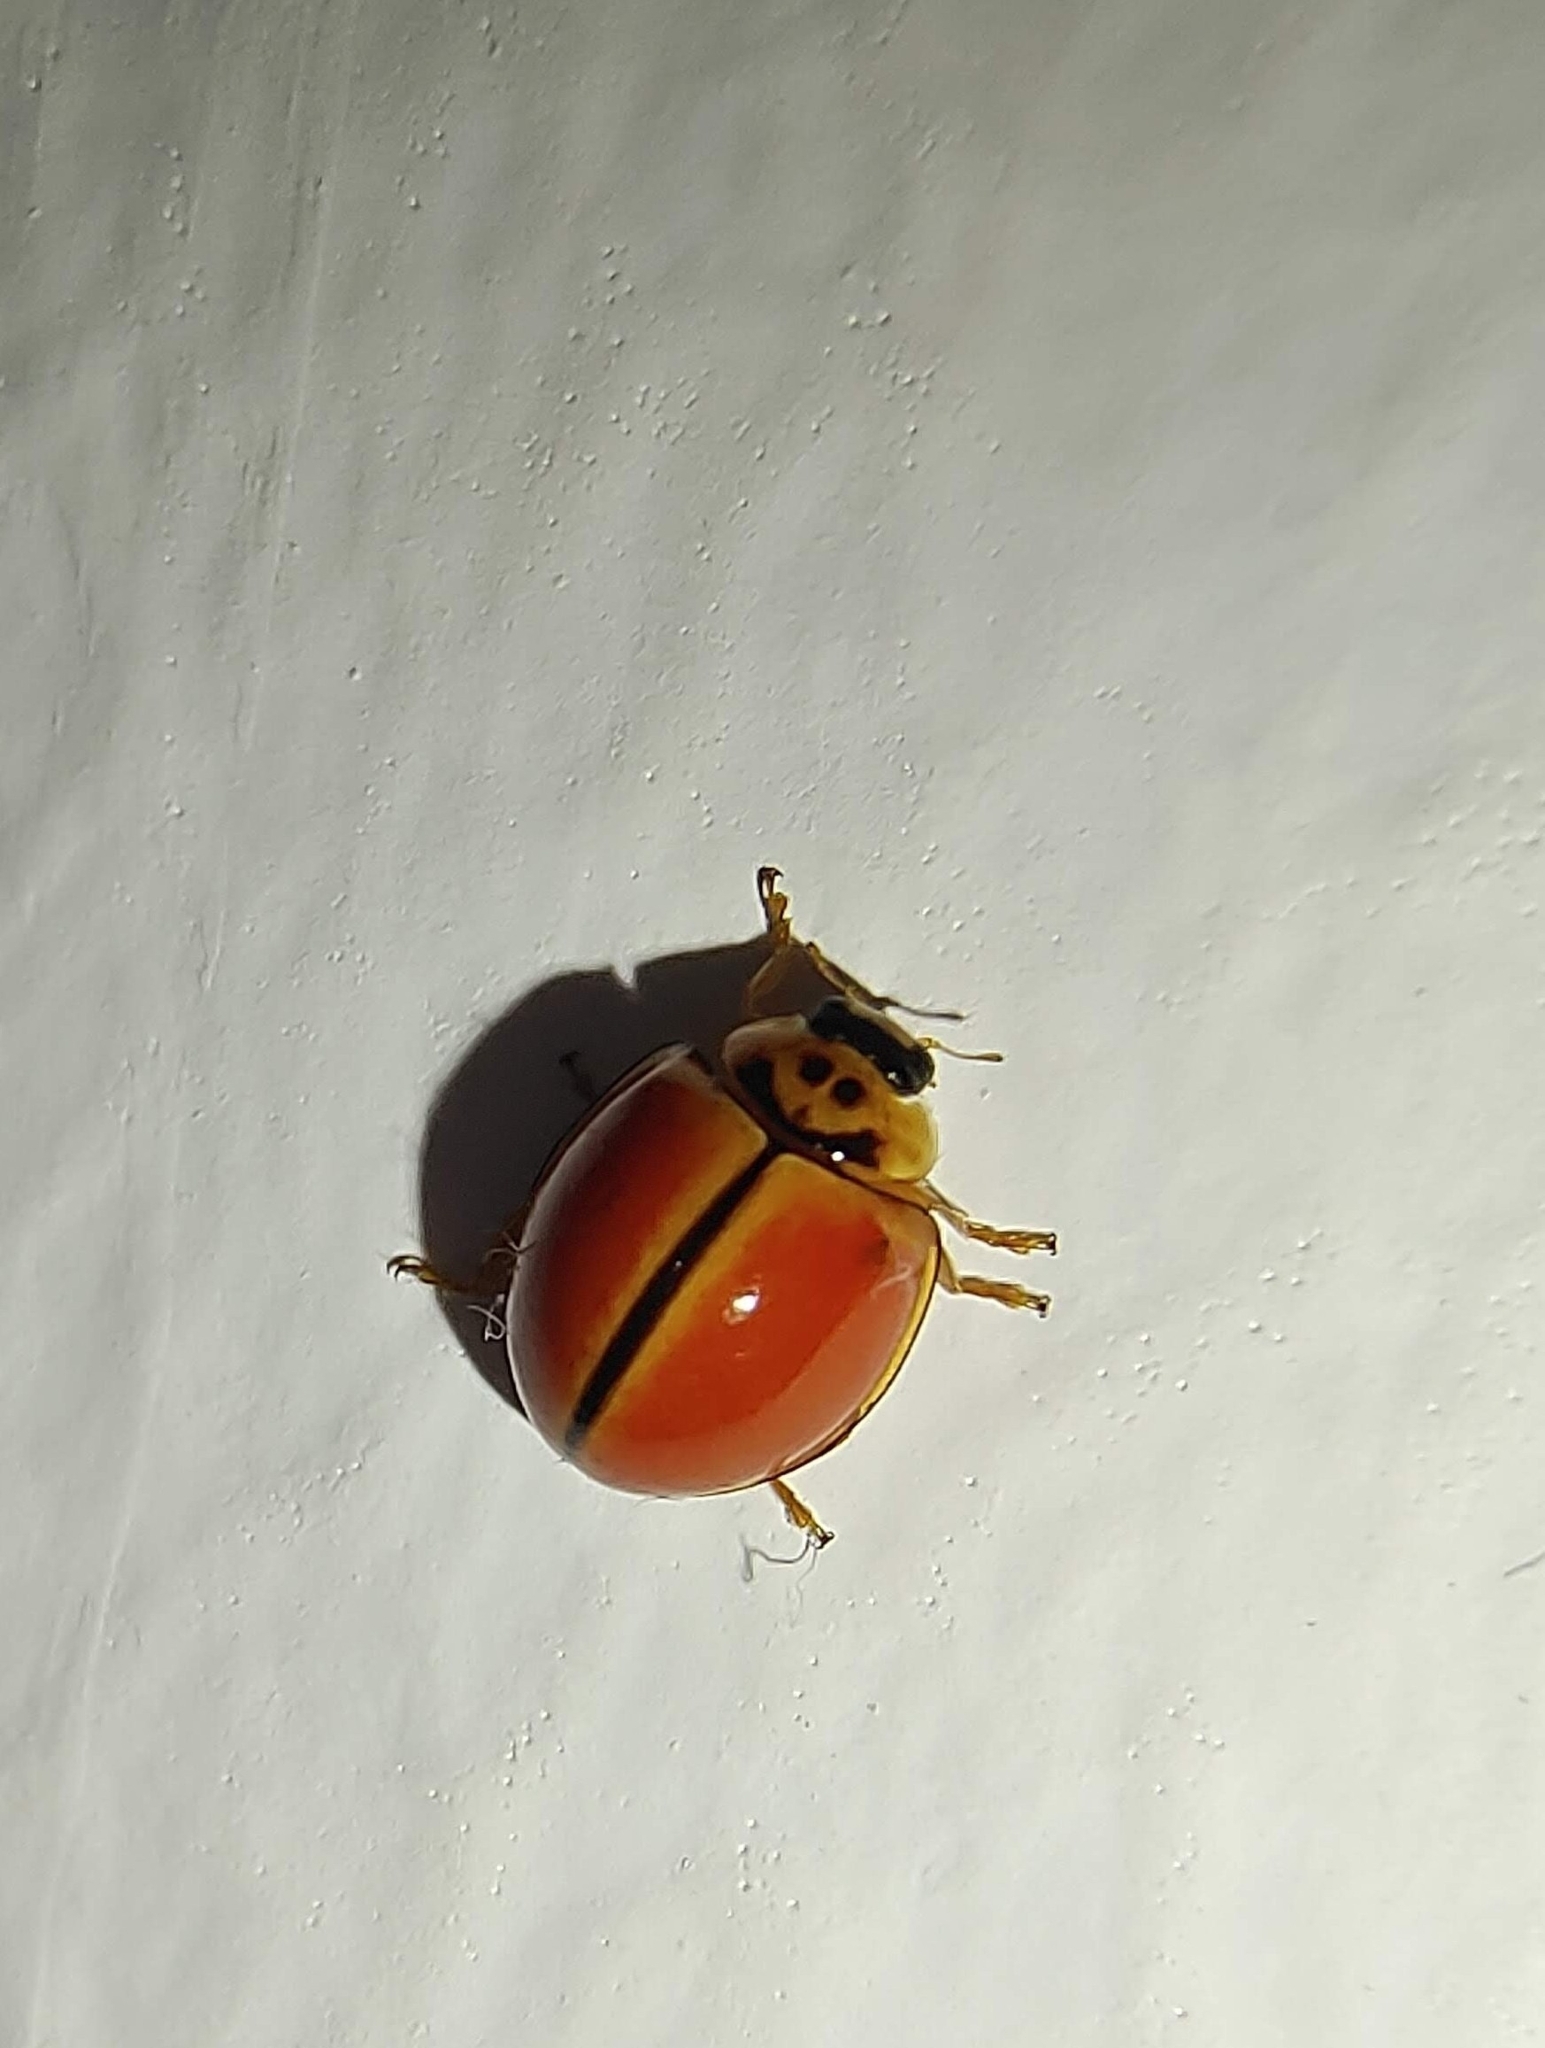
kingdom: Animalia
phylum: Arthropoda
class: Insecta
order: Coleoptera
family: Coccinellidae
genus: Micraspis
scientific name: Micraspis discolor
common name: Lady beetle
